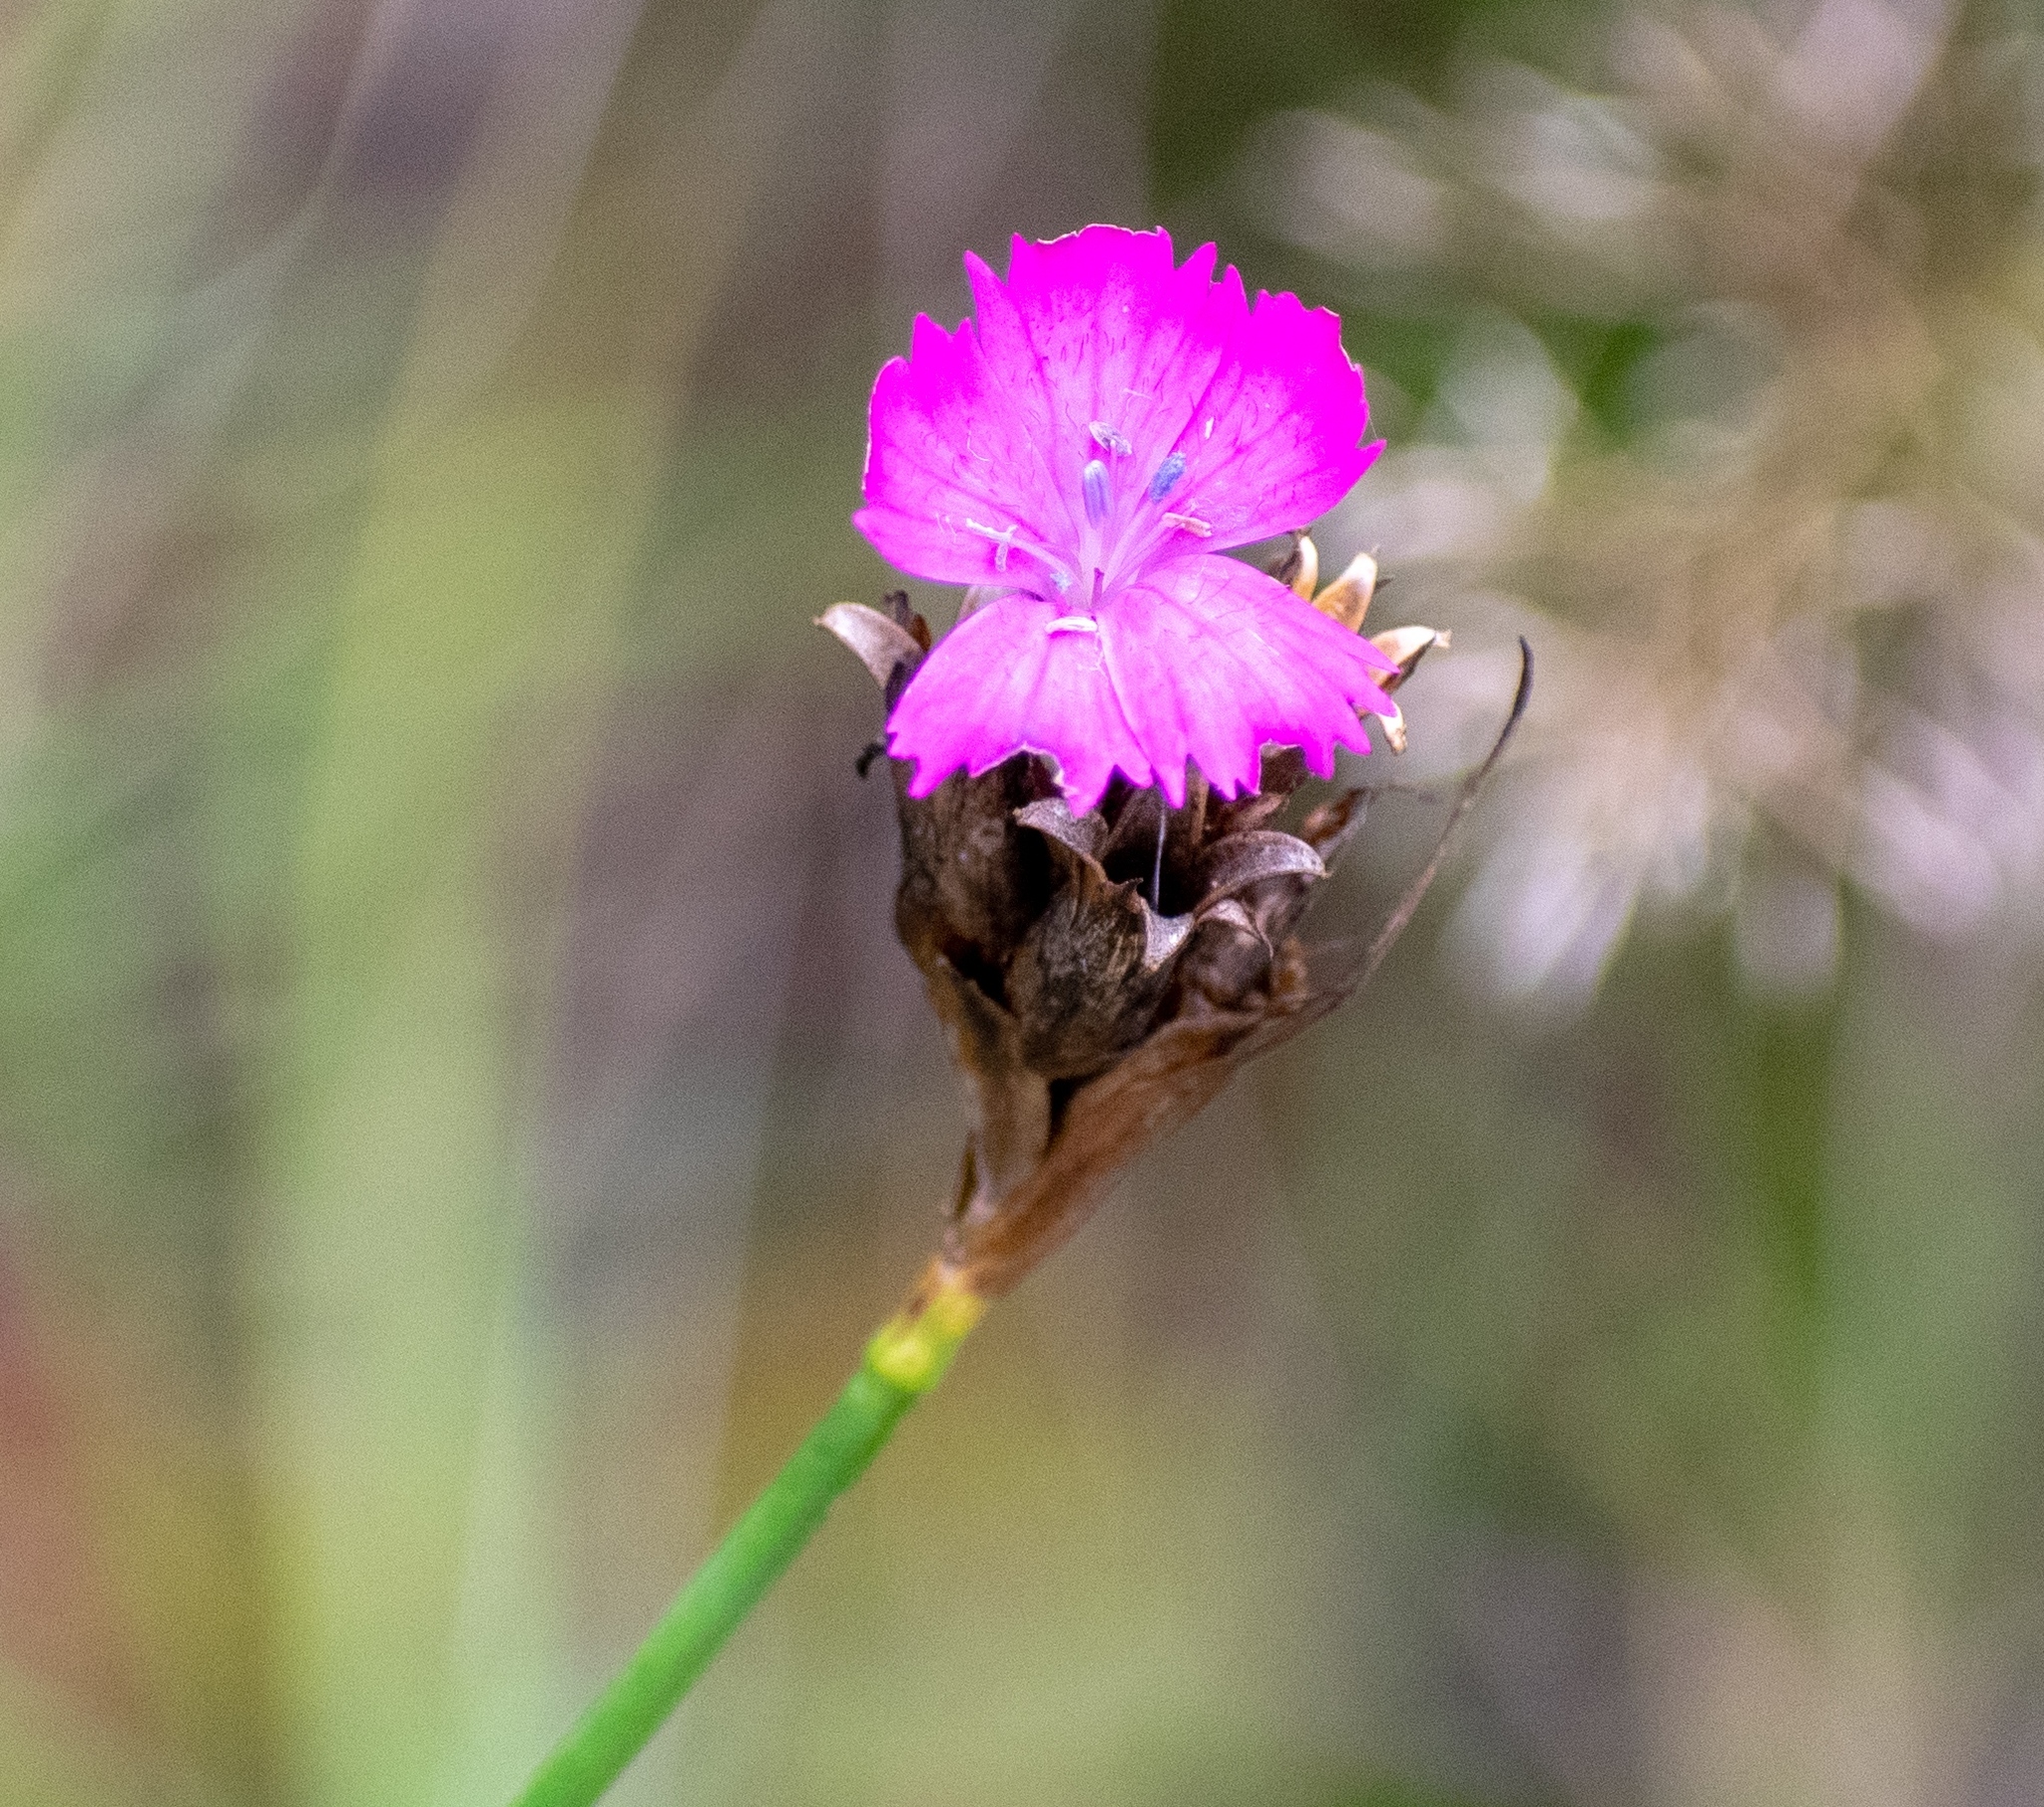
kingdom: Plantae
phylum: Tracheophyta
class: Magnoliopsida
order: Caryophyllales
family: Caryophyllaceae
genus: Dianthus
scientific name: Dianthus carthusianorum
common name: Carthusian pink
